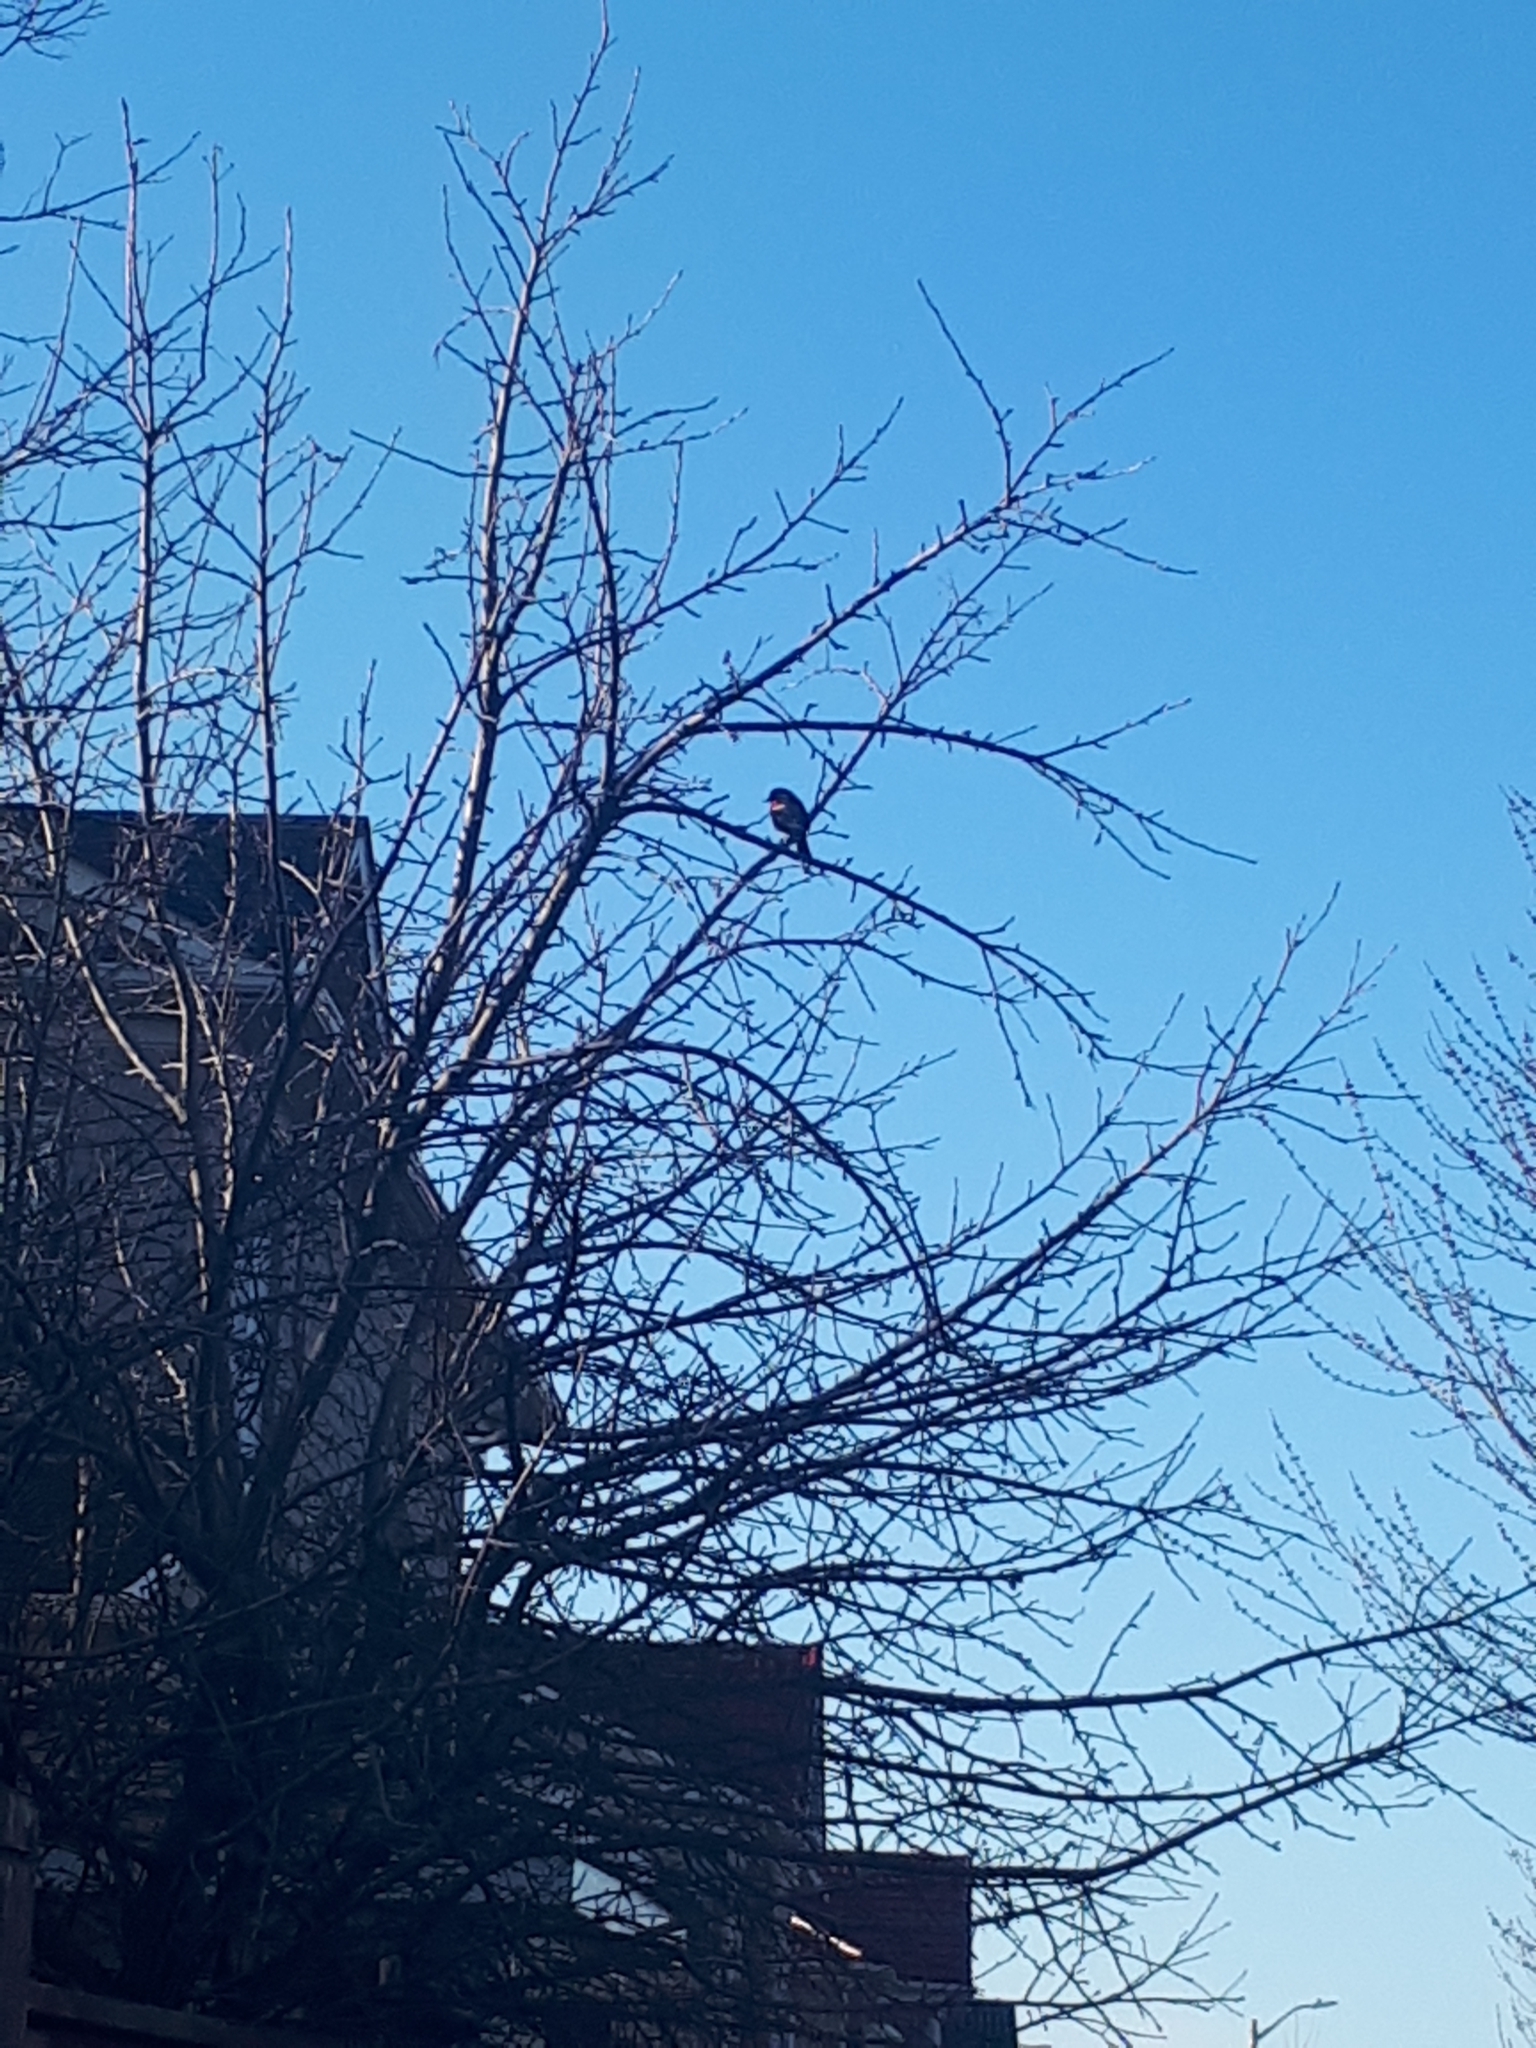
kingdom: Animalia
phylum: Chordata
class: Aves
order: Passeriformes
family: Icteridae
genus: Agelaius
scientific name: Agelaius phoeniceus
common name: Red-winged blackbird
